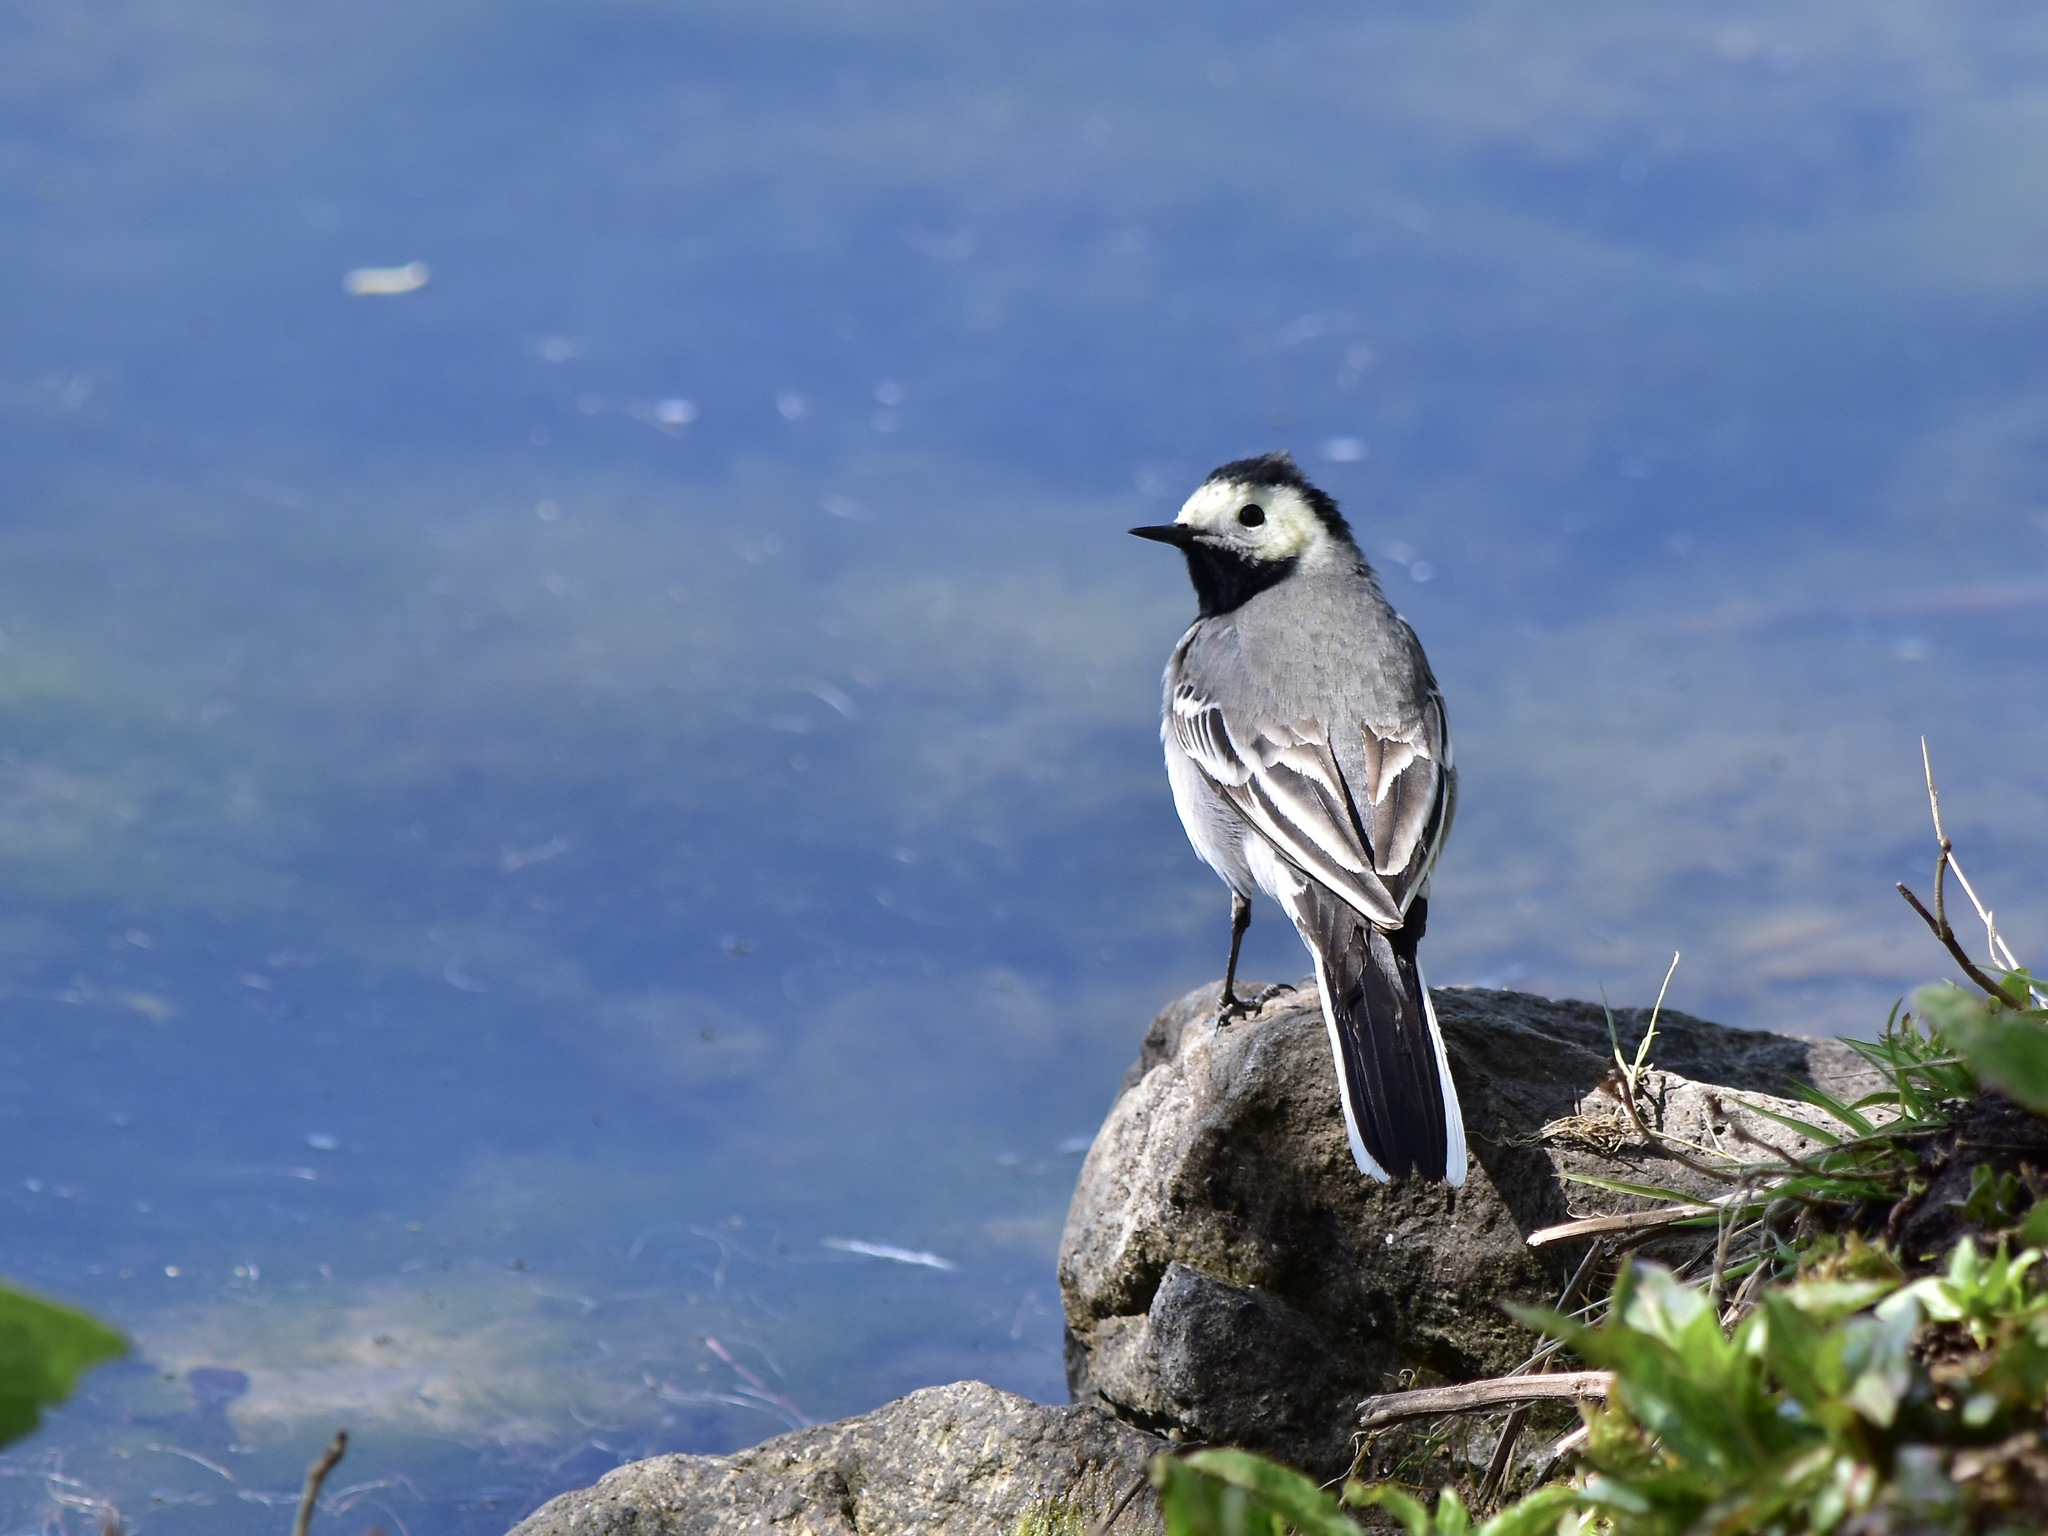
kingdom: Animalia
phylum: Chordata
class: Aves
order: Passeriformes
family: Motacillidae
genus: Motacilla
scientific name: Motacilla alba
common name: White wagtail
